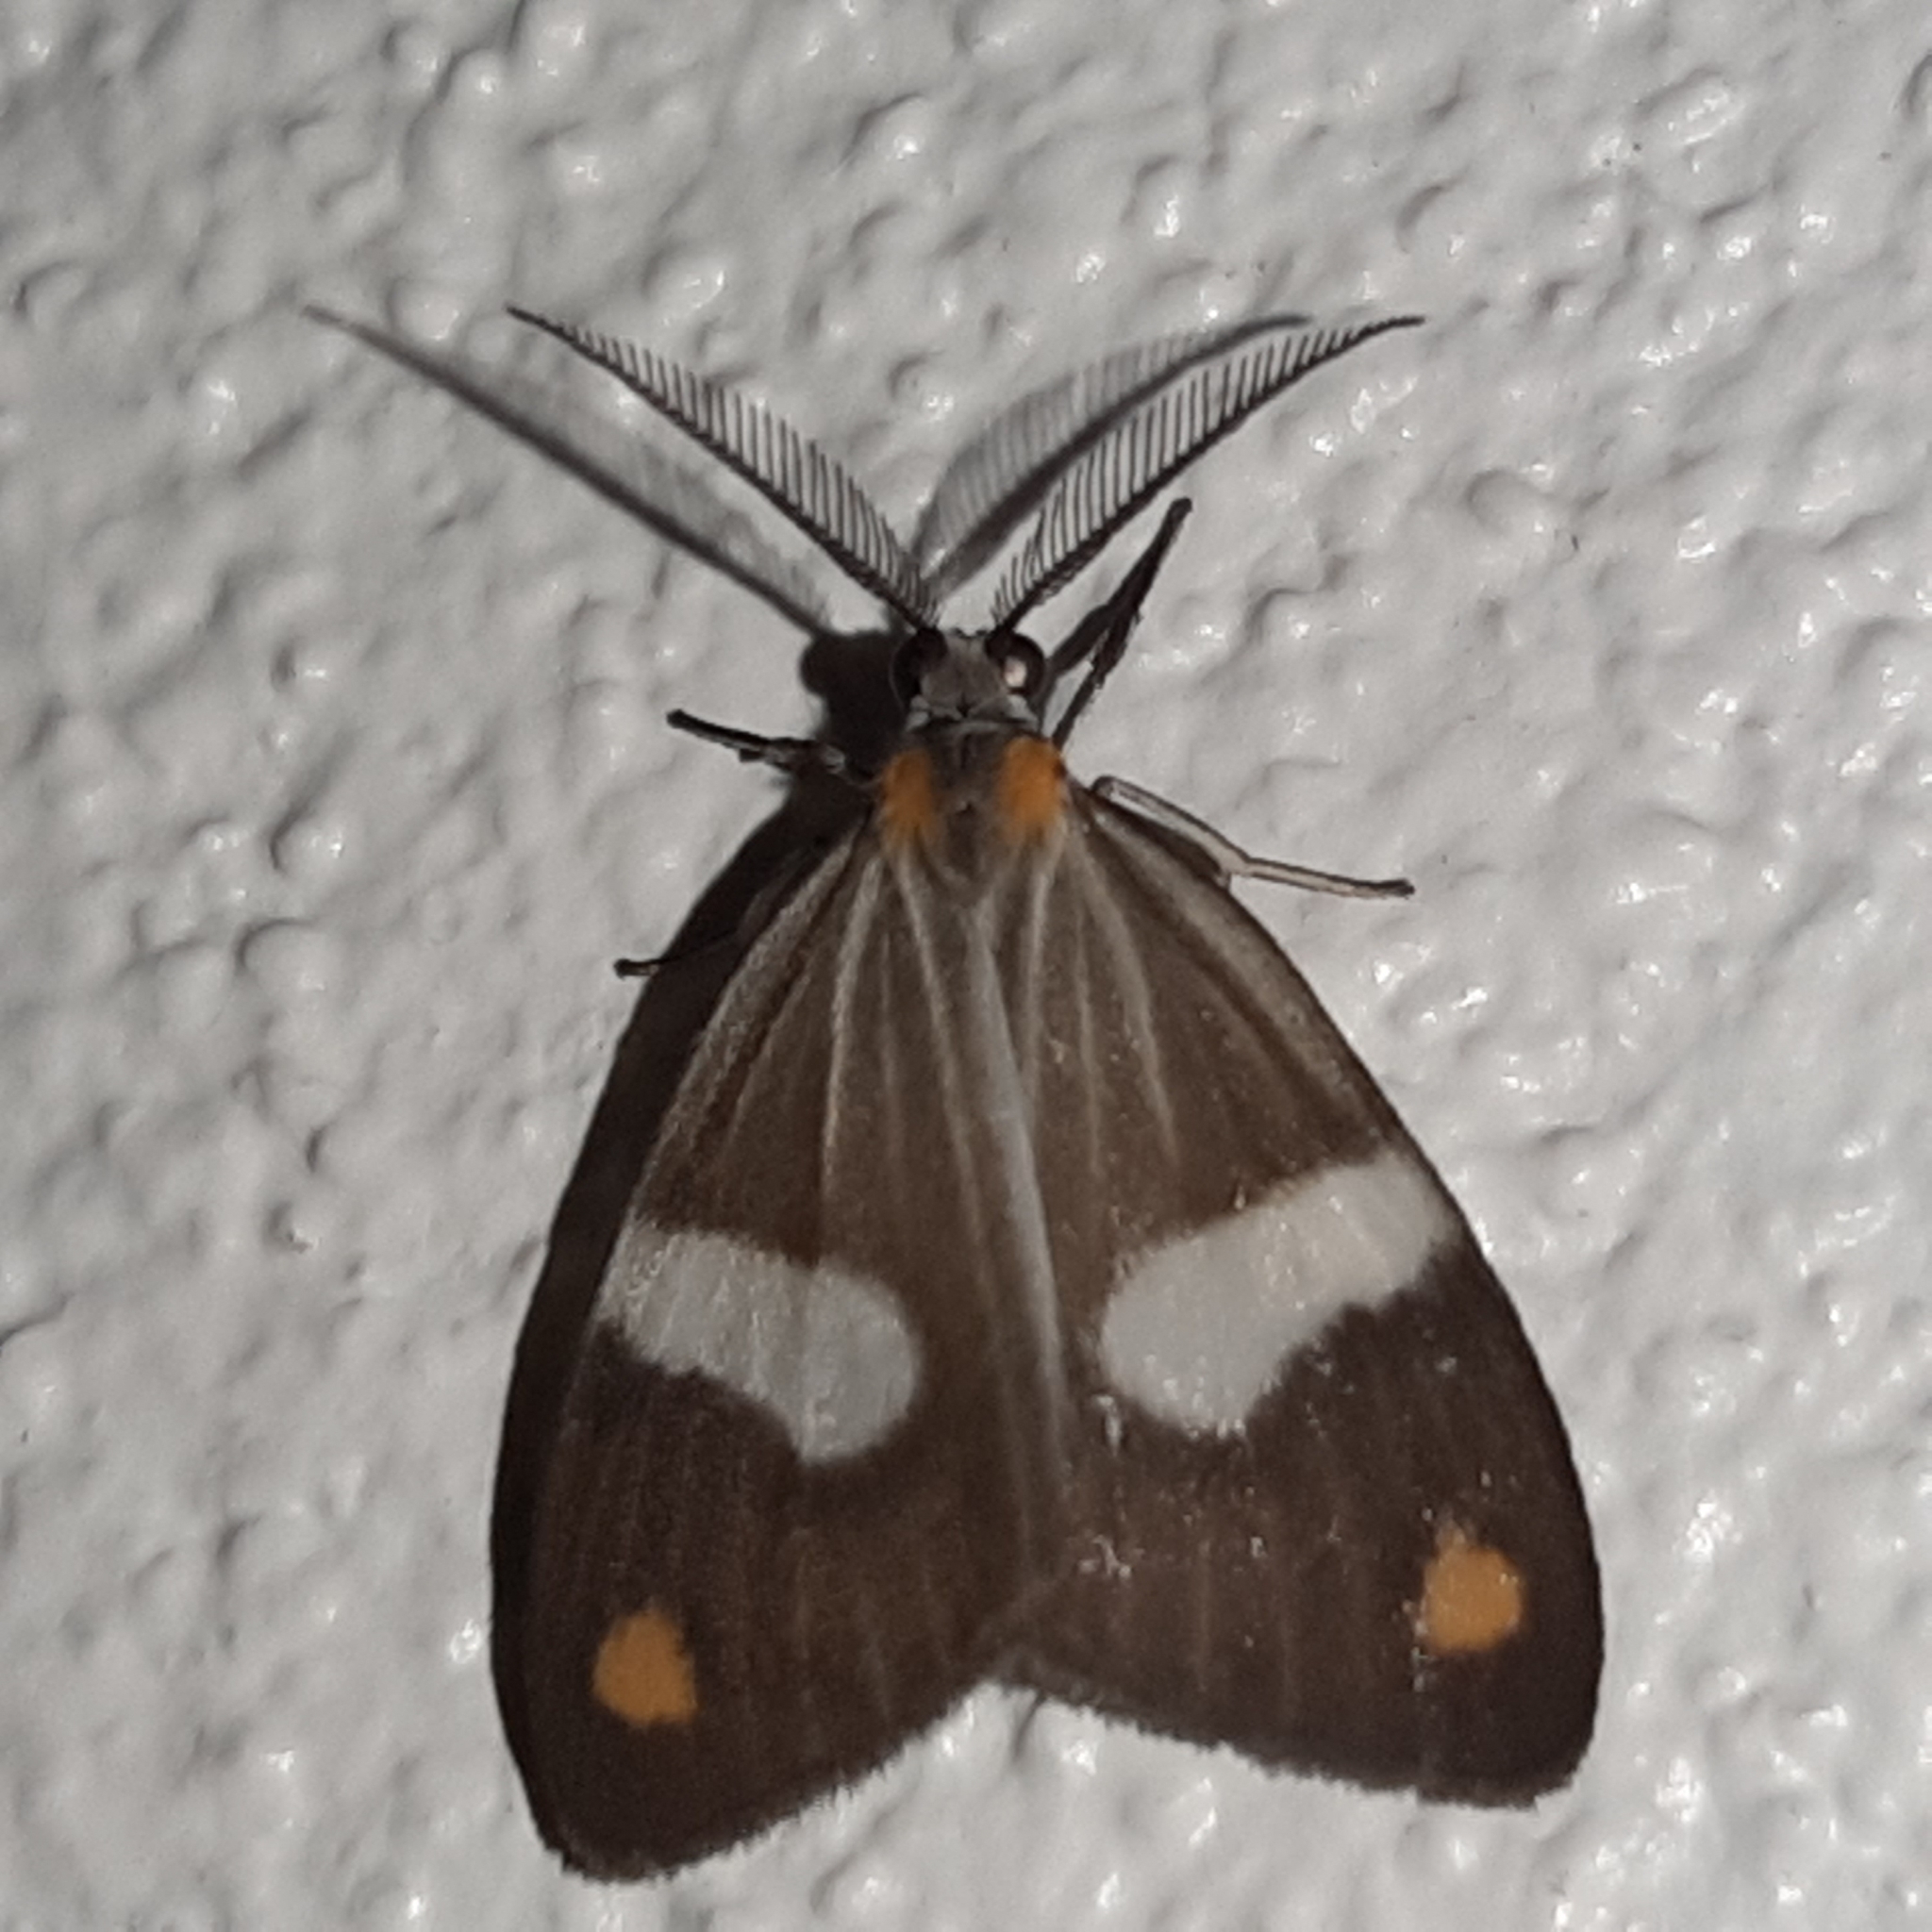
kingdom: Animalia
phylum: Arthropoda
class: Insecta
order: Lepidoptera
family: Notodontidae
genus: Nebulosa
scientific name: Nebulosa erymas
